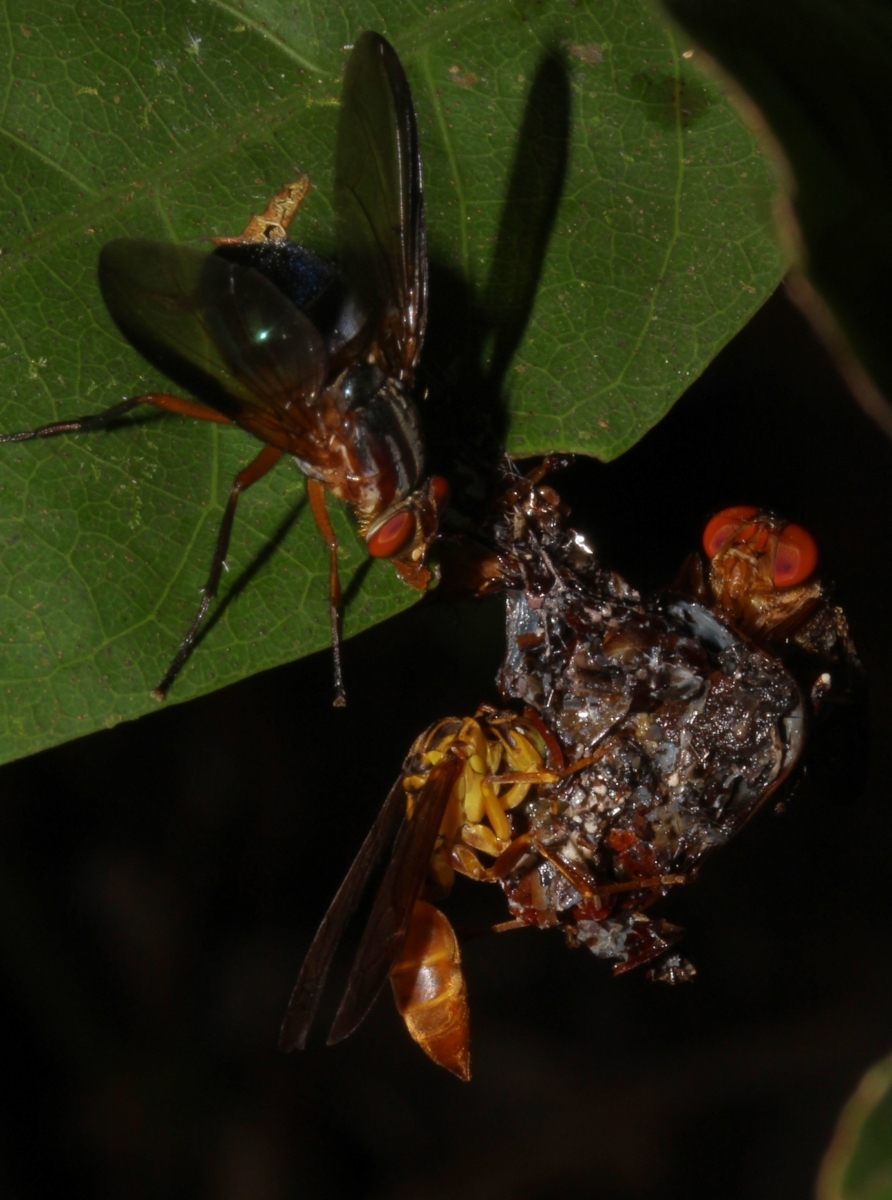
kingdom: Animalia
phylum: Arthropoda
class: Insecta
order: Hymenoptera
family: Vespidae
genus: Agelaia
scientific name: Agelaia
